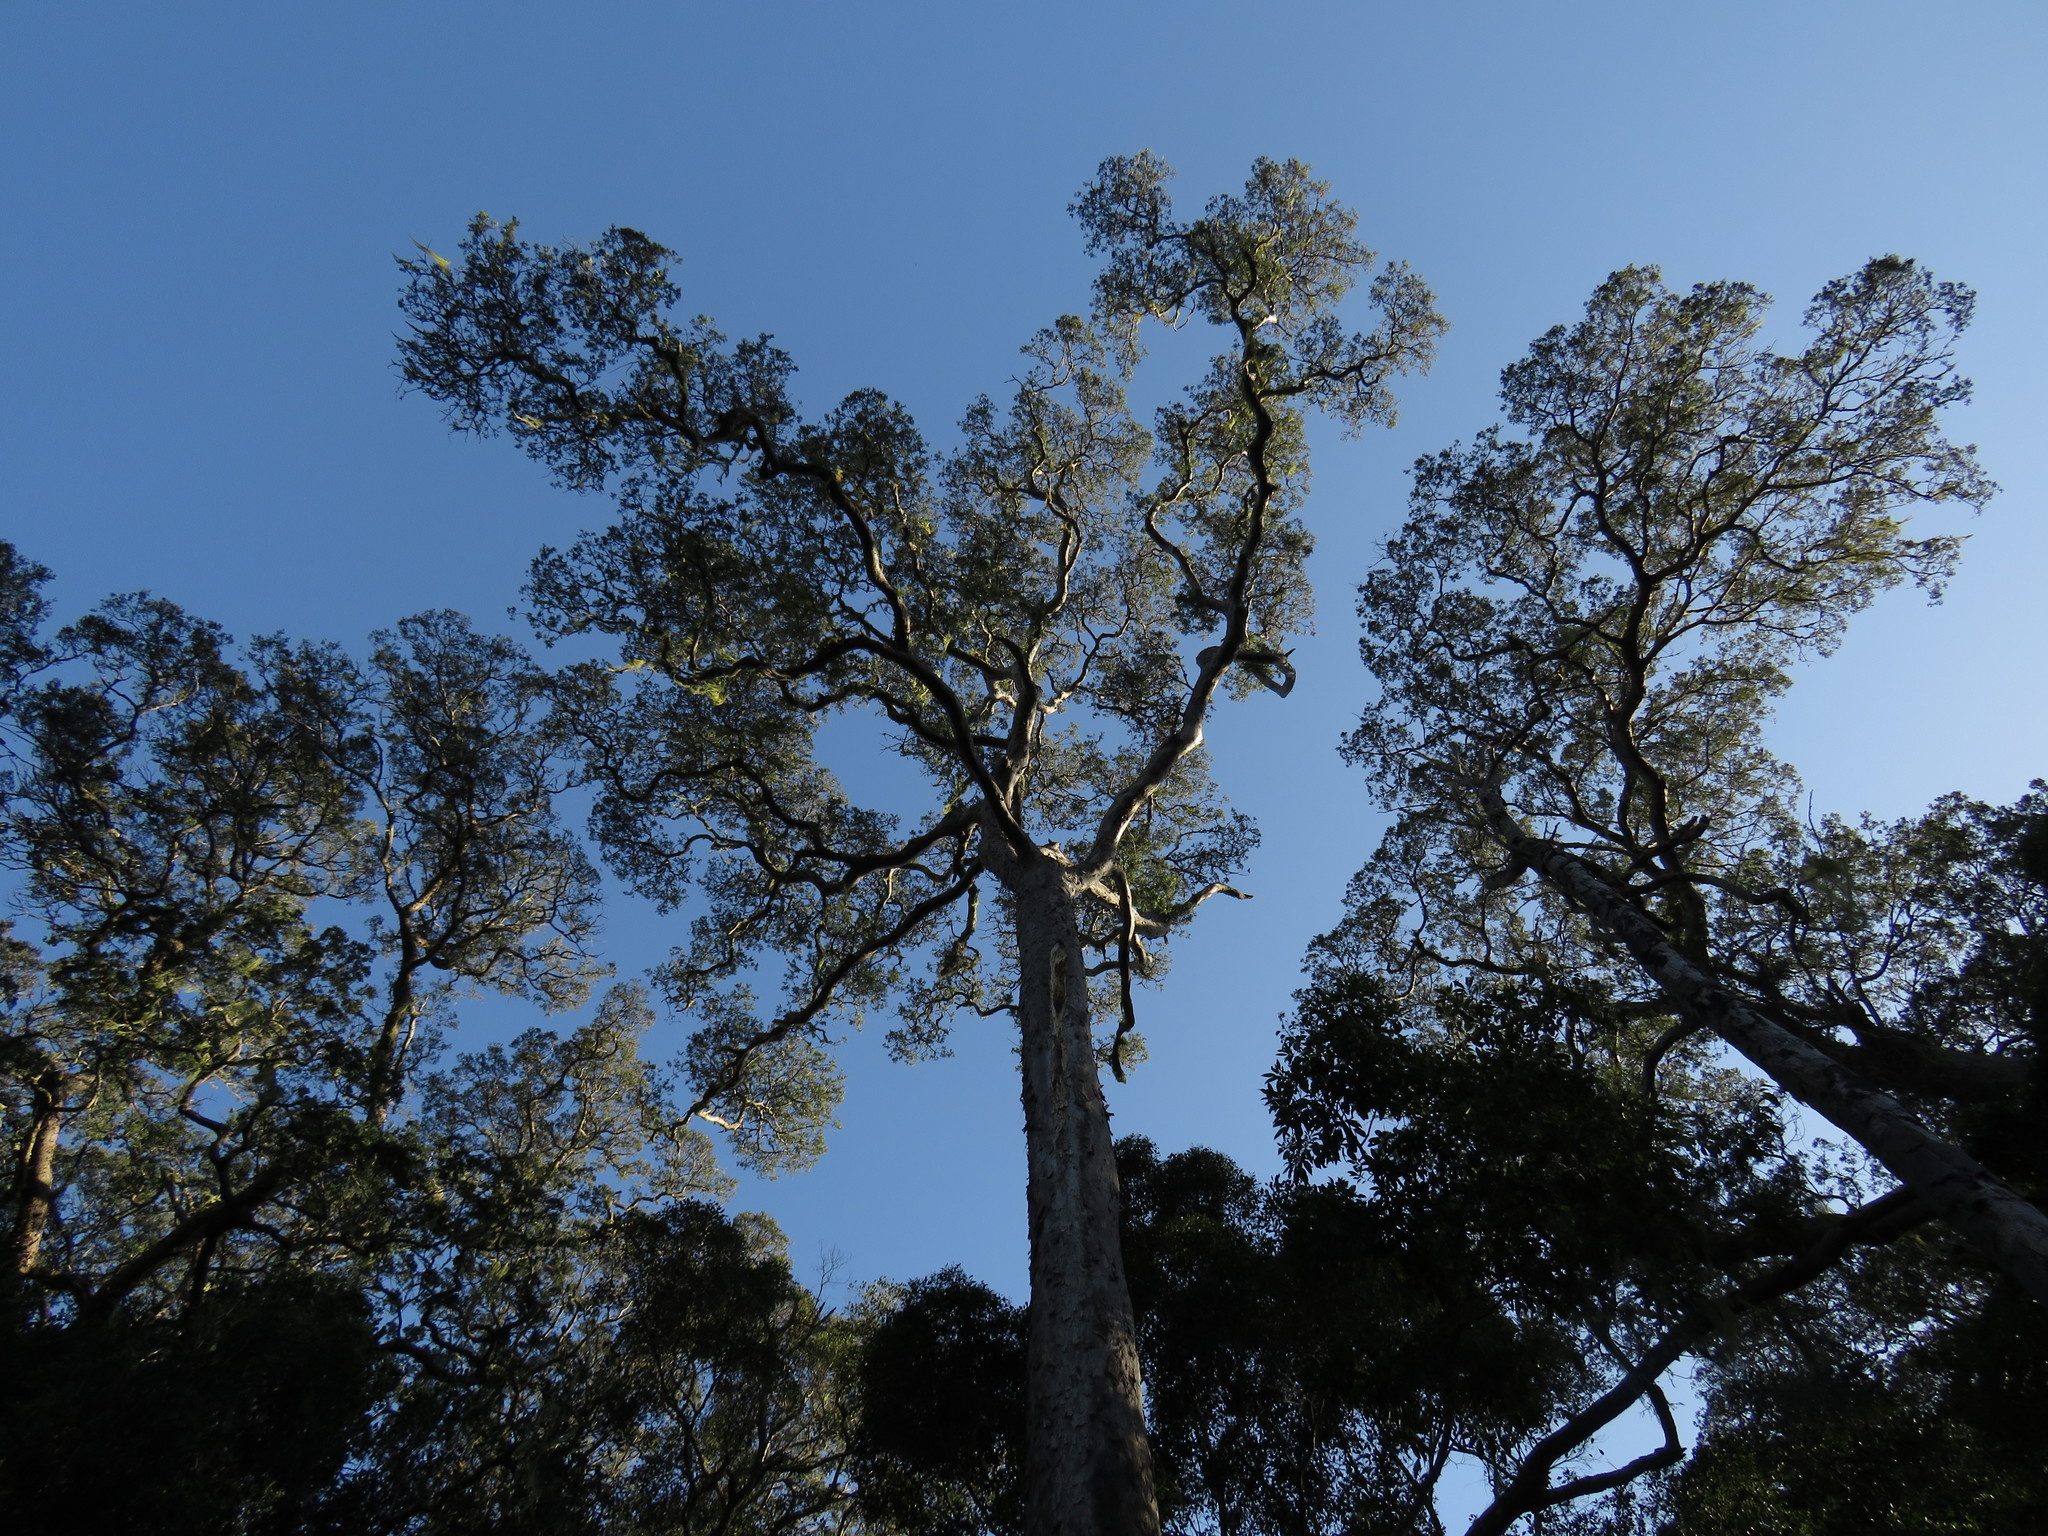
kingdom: Plantae
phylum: Tracheophyta
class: Pinopsida
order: Pinales
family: Podocarpaceae
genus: Afrocarpus
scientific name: Afrocarpus falcatus
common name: Bastard yellowwood
